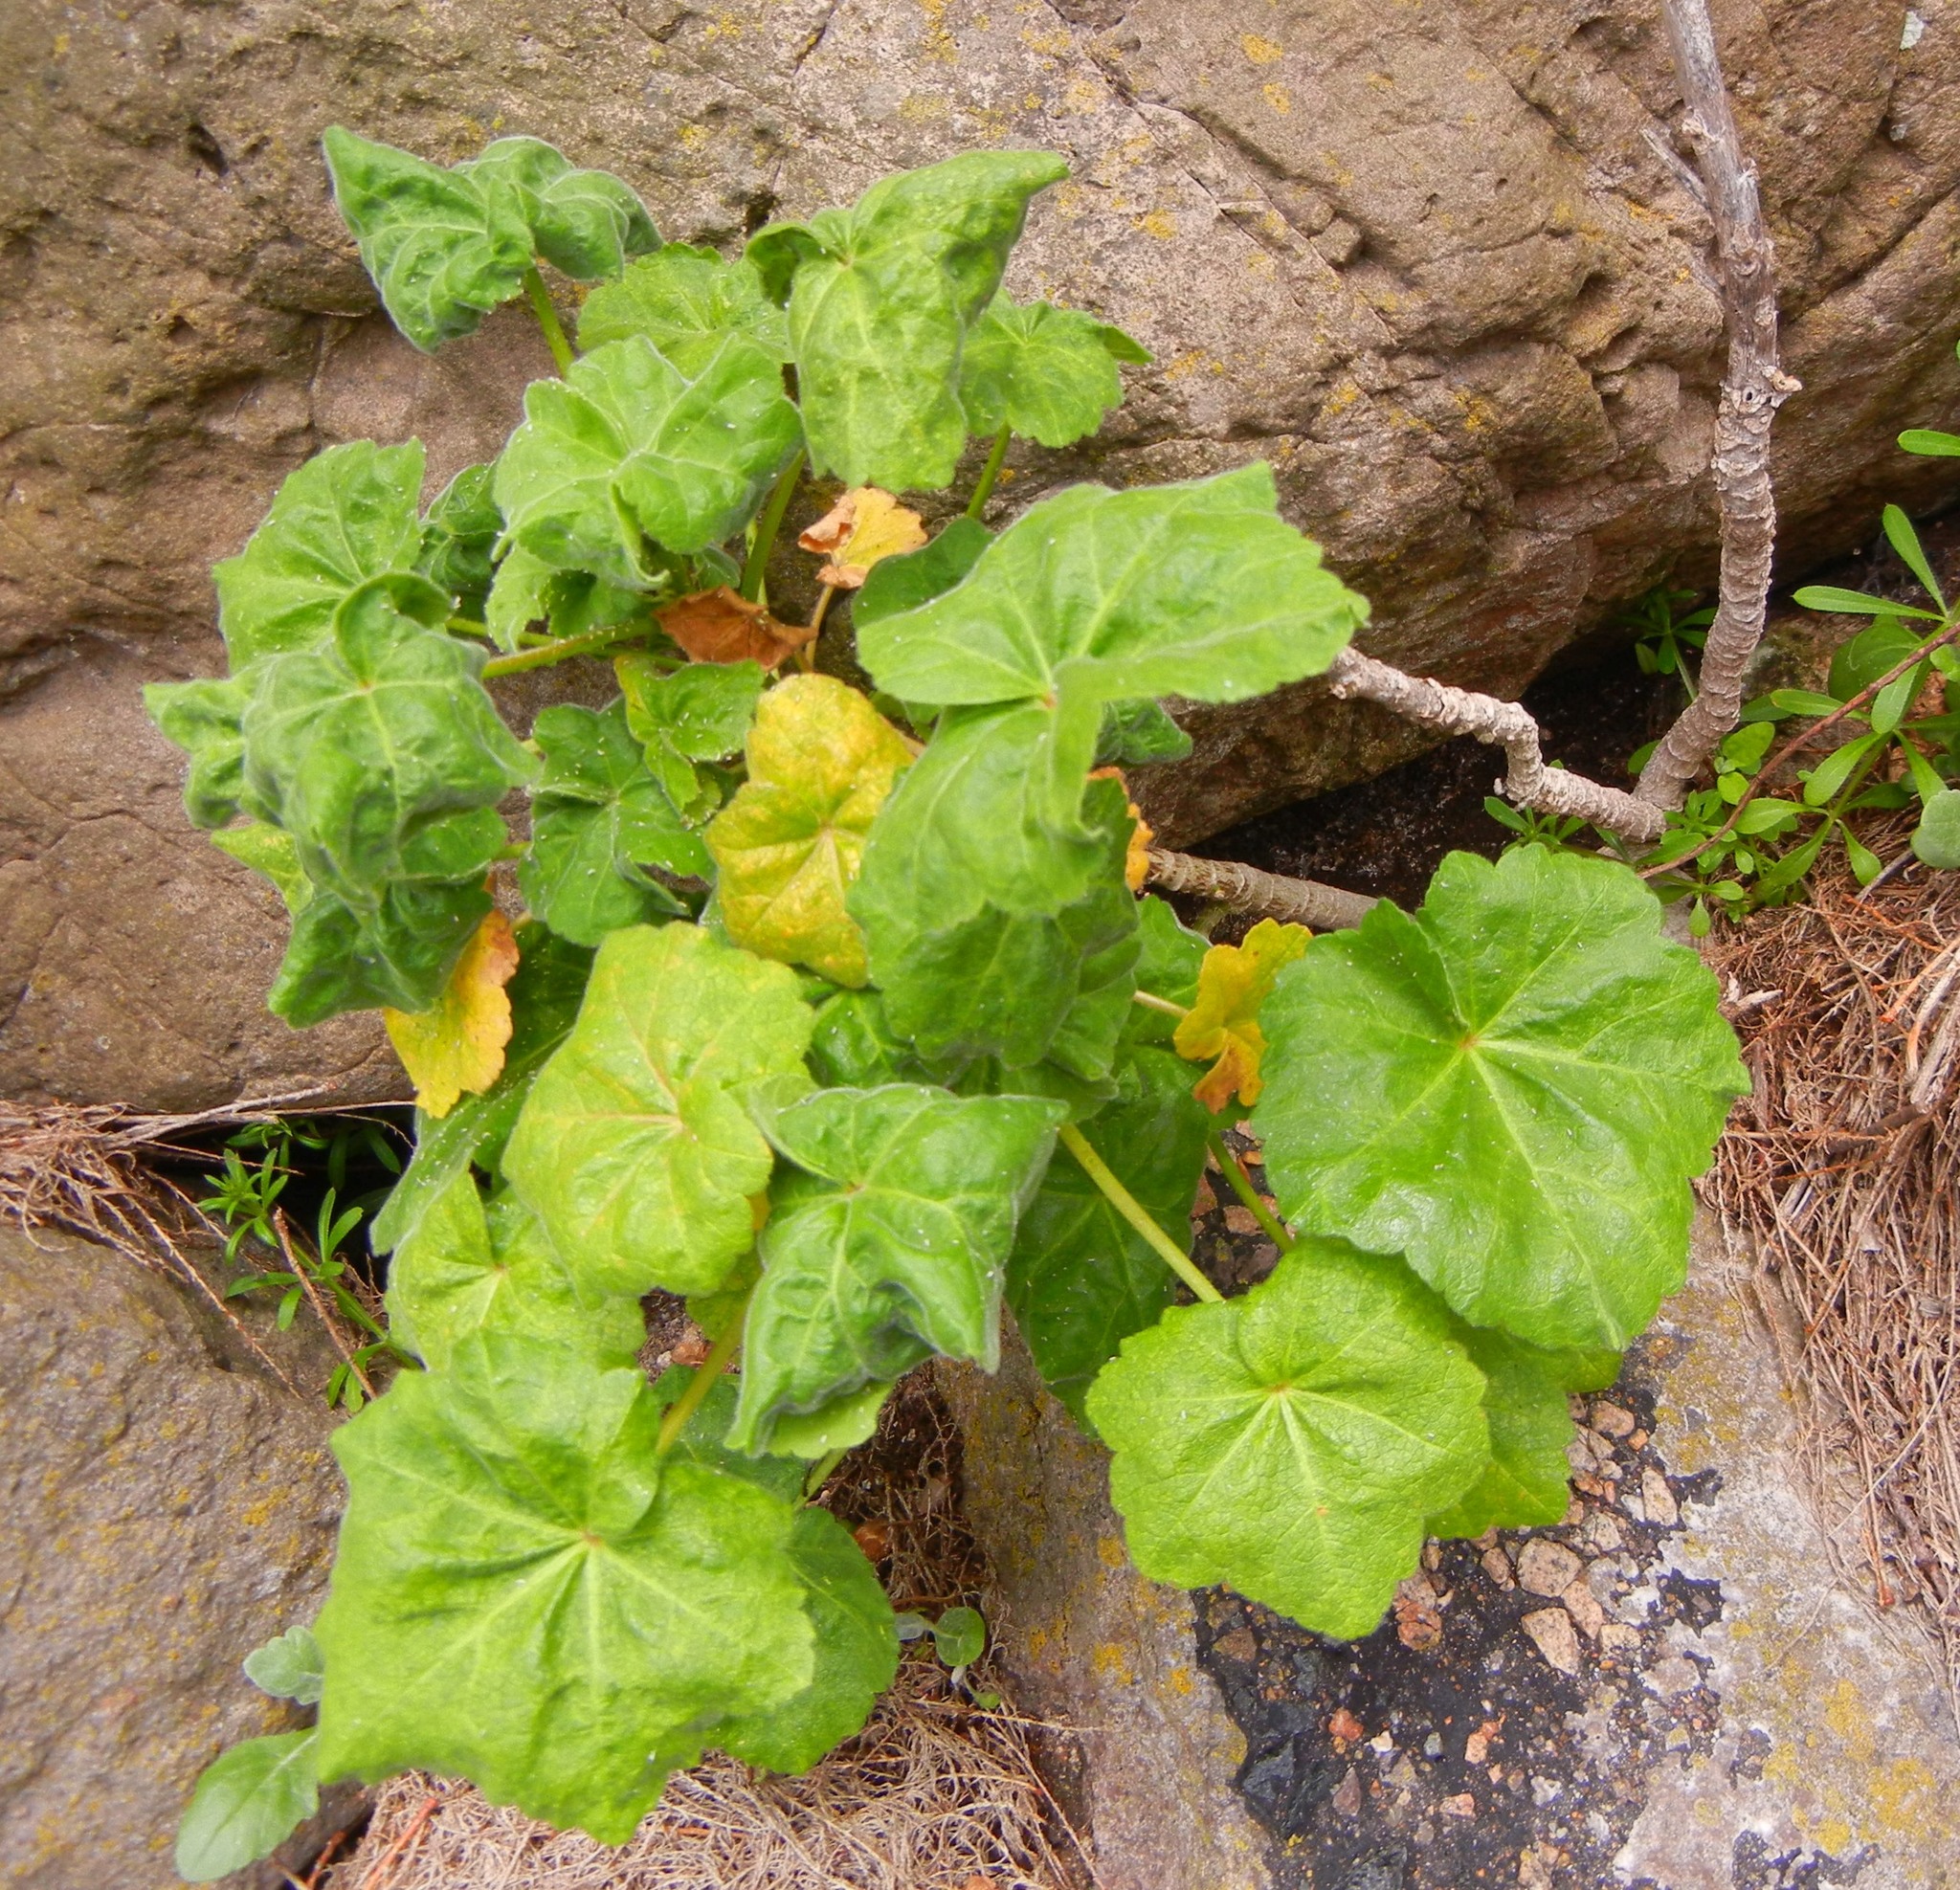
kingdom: Plantae
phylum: Tracheophyta
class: Magnoliopsida
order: Malvales
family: Malvaceae
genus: Malva
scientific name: Malva arborea
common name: Tree mallow
